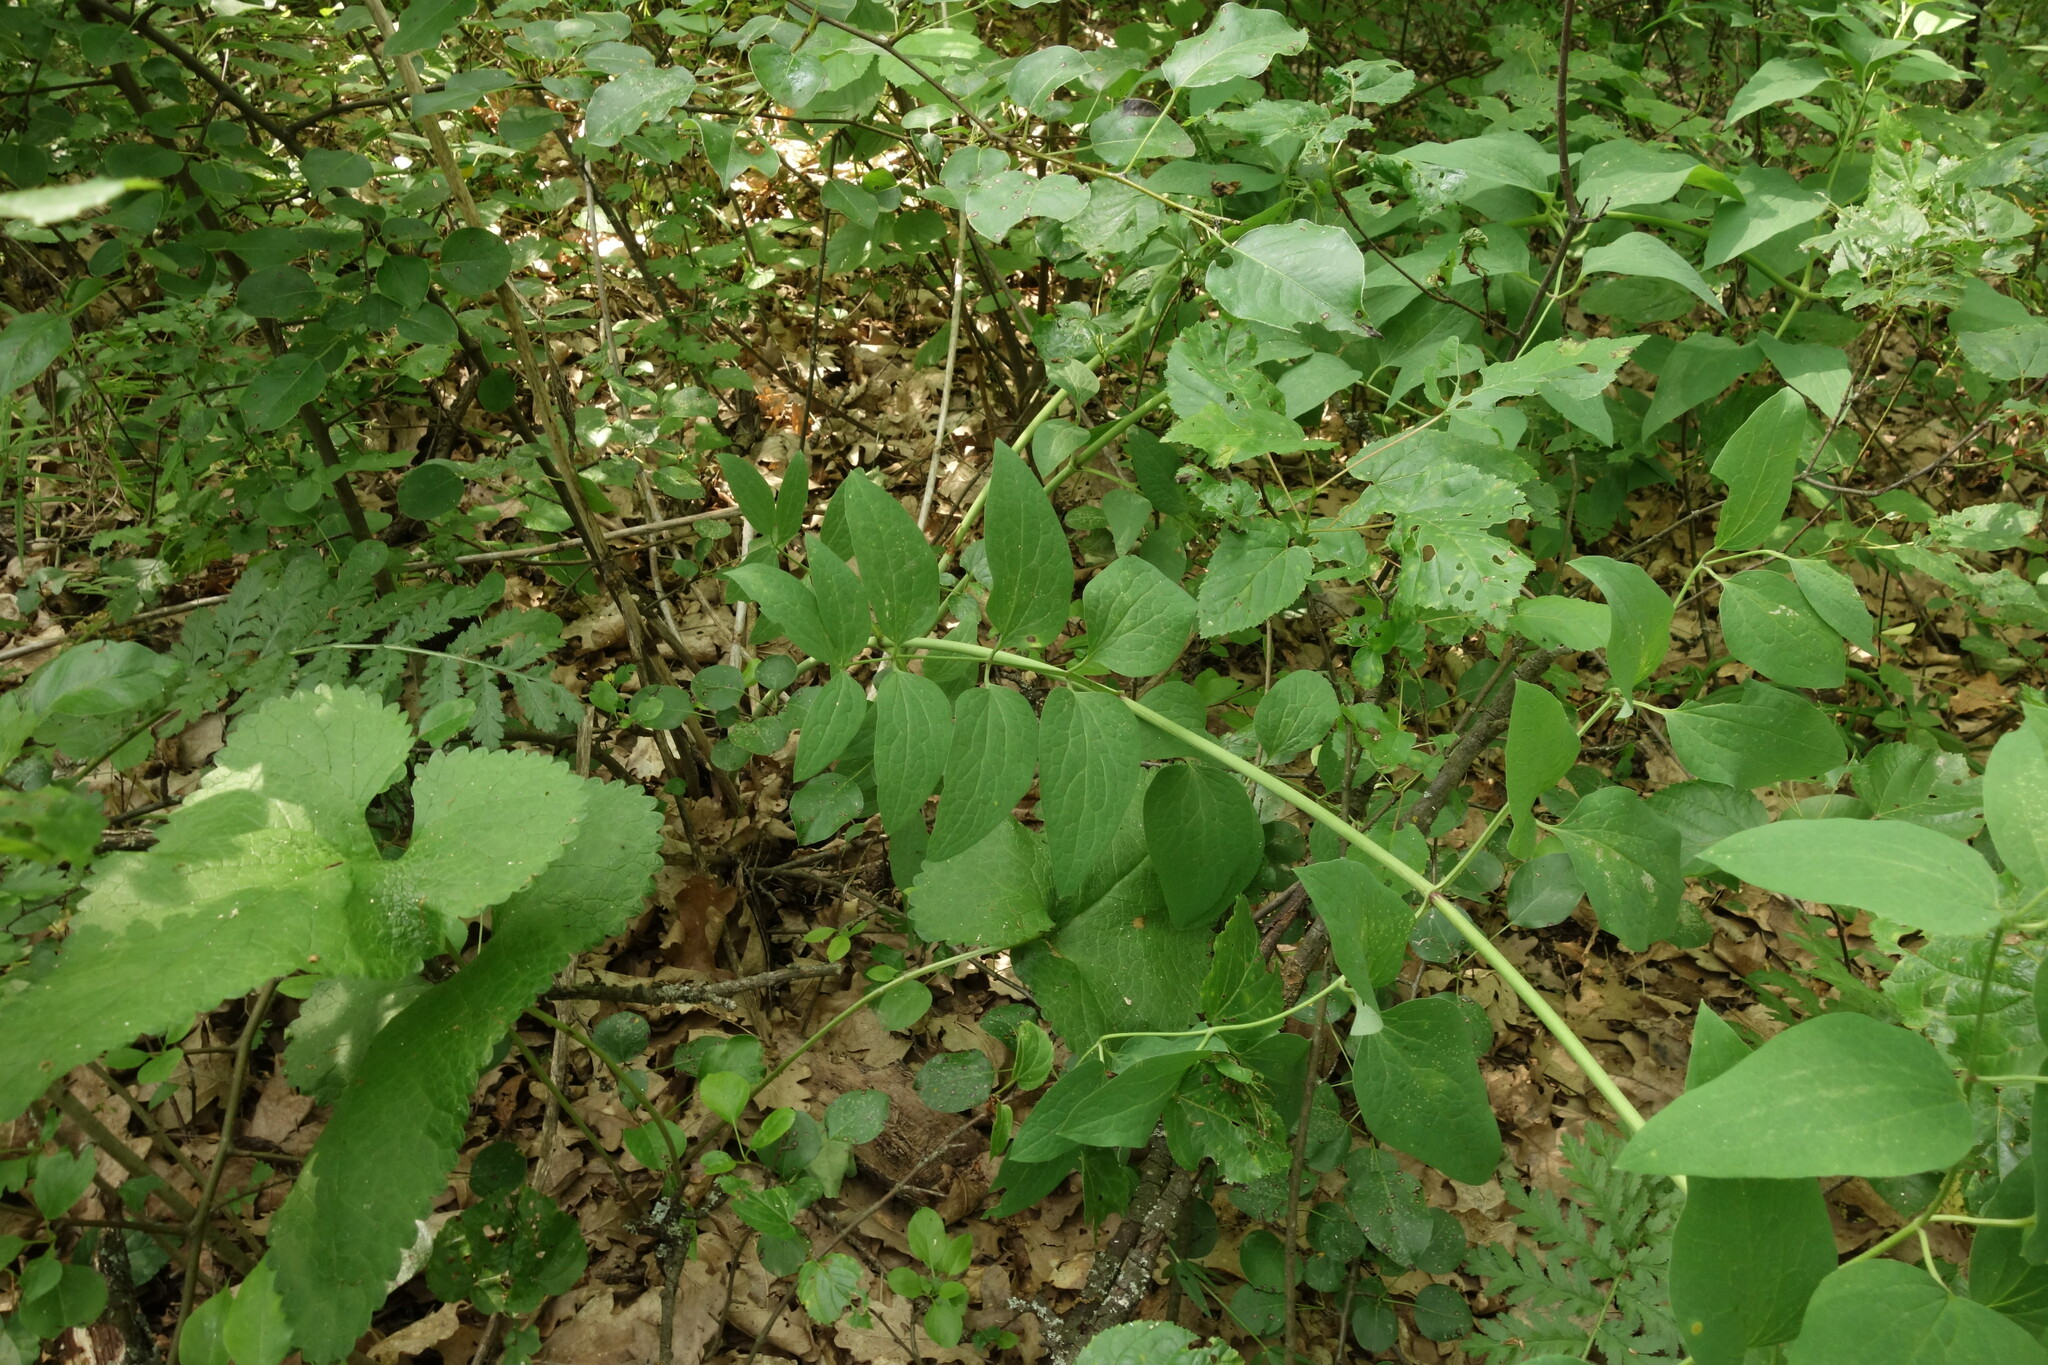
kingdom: Plantae
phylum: Tracheophyta
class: Magnoliopsida
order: Ranunculales
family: Ranunculaceae
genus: Clematis
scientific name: Clematis recta
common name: Ground clematis
